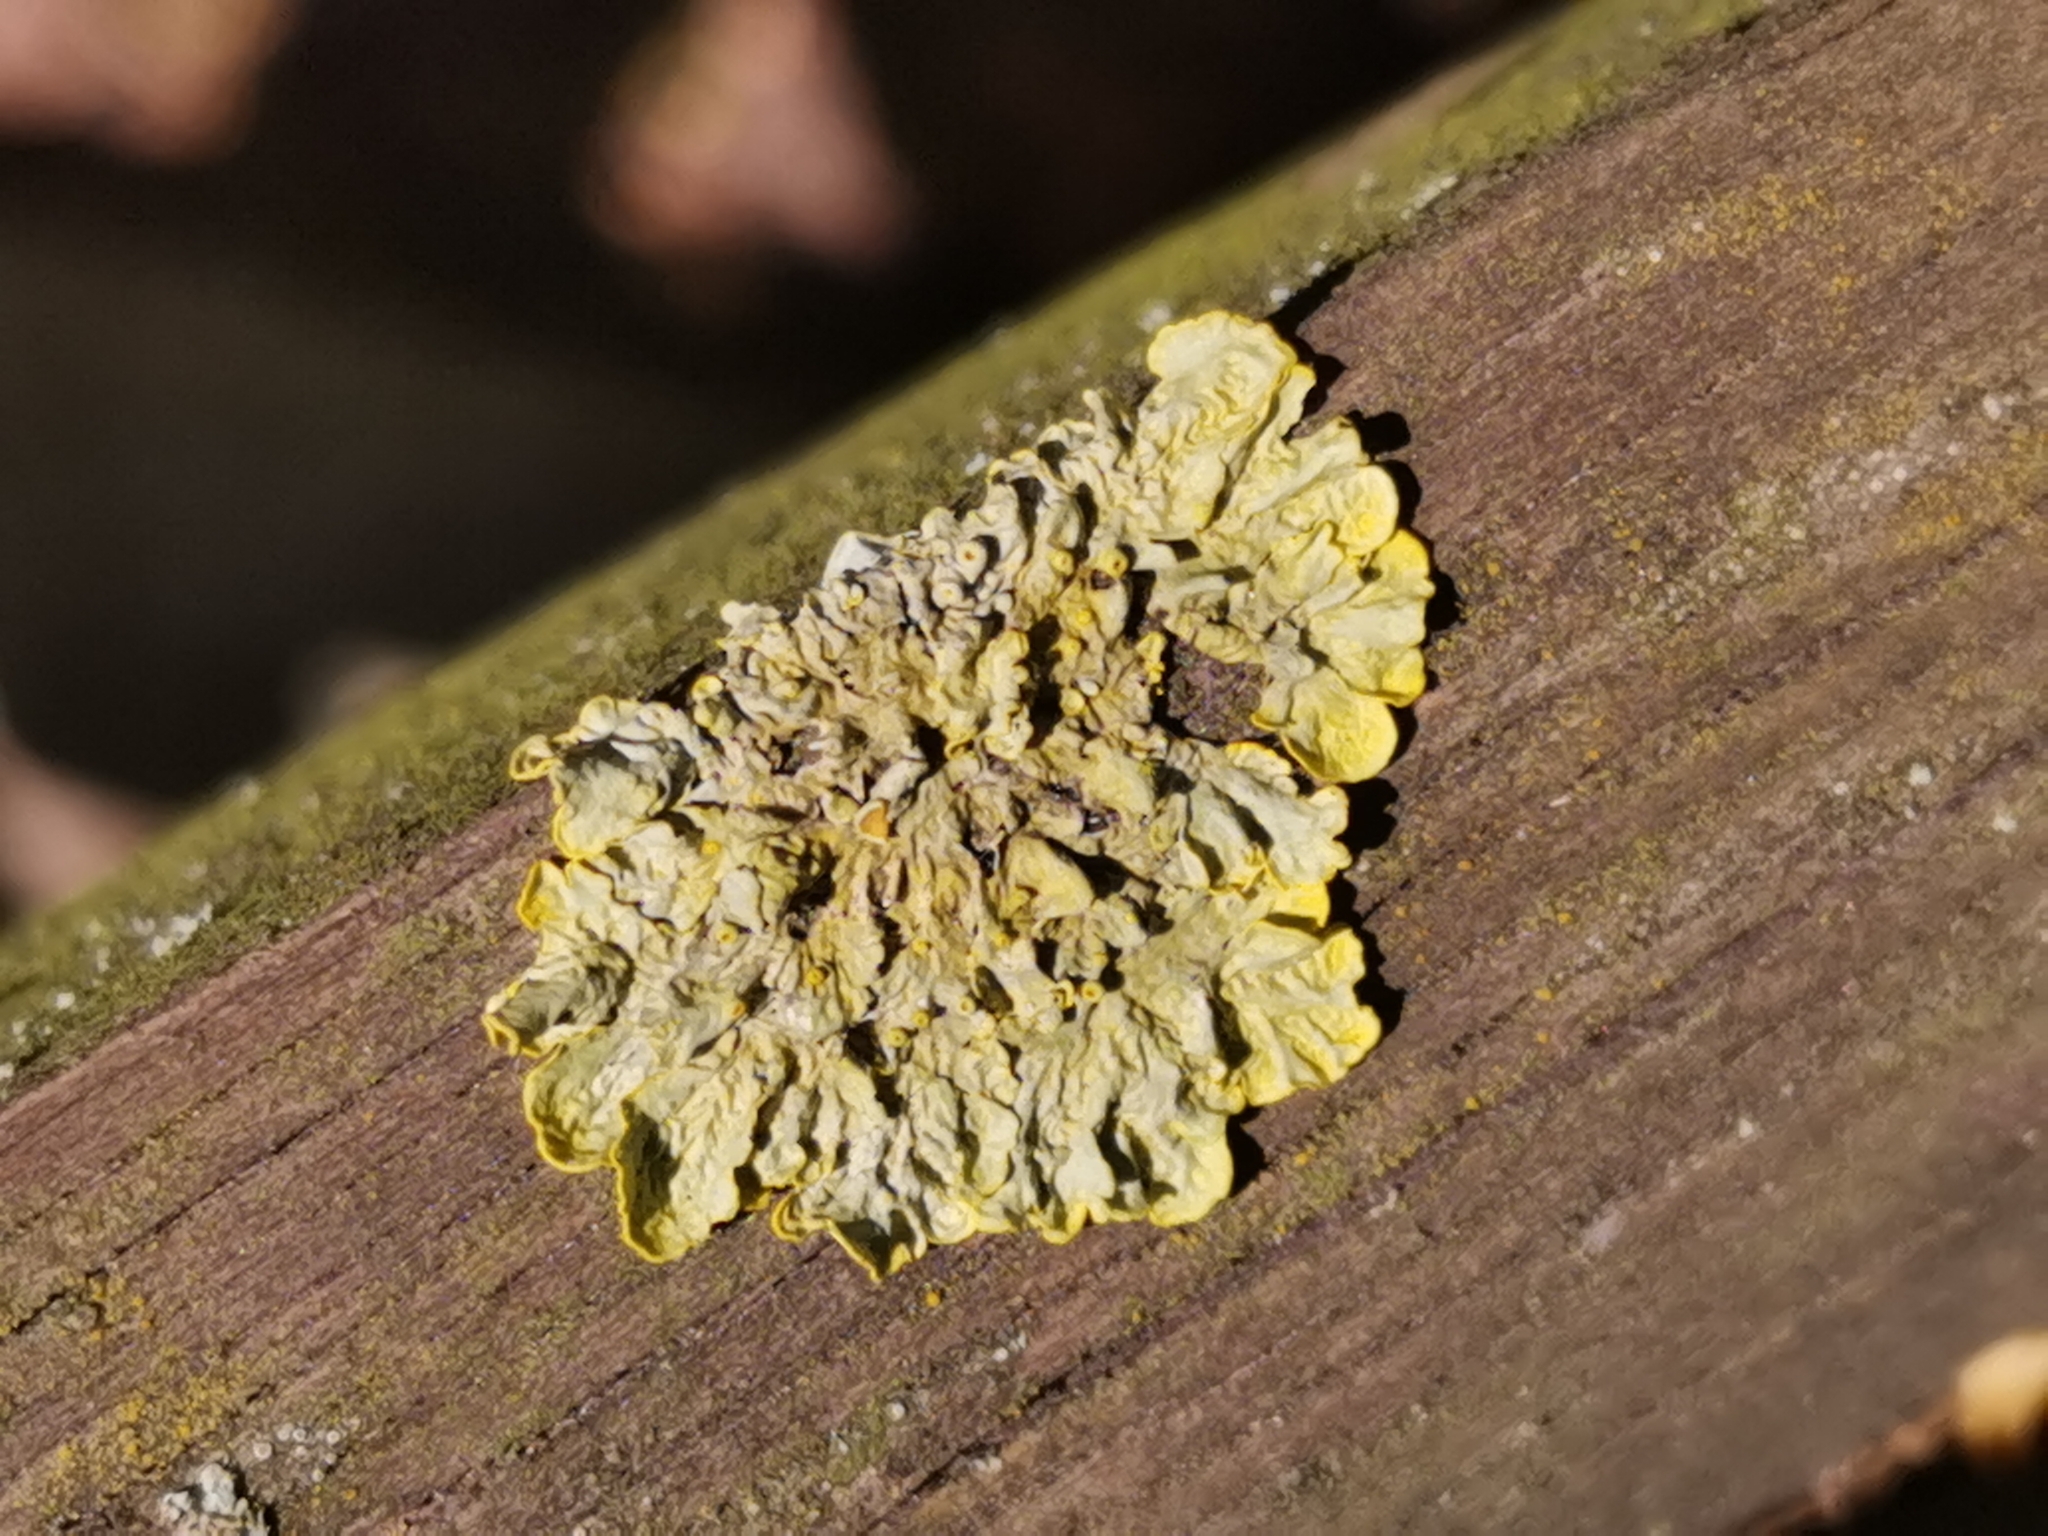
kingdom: Fungi
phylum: Ascomycota
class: Lecanoromycetes
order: Teloschistales
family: Teloschistaceae
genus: Xanthoria
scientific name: Xanthoria parietina
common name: Common orange lichen
